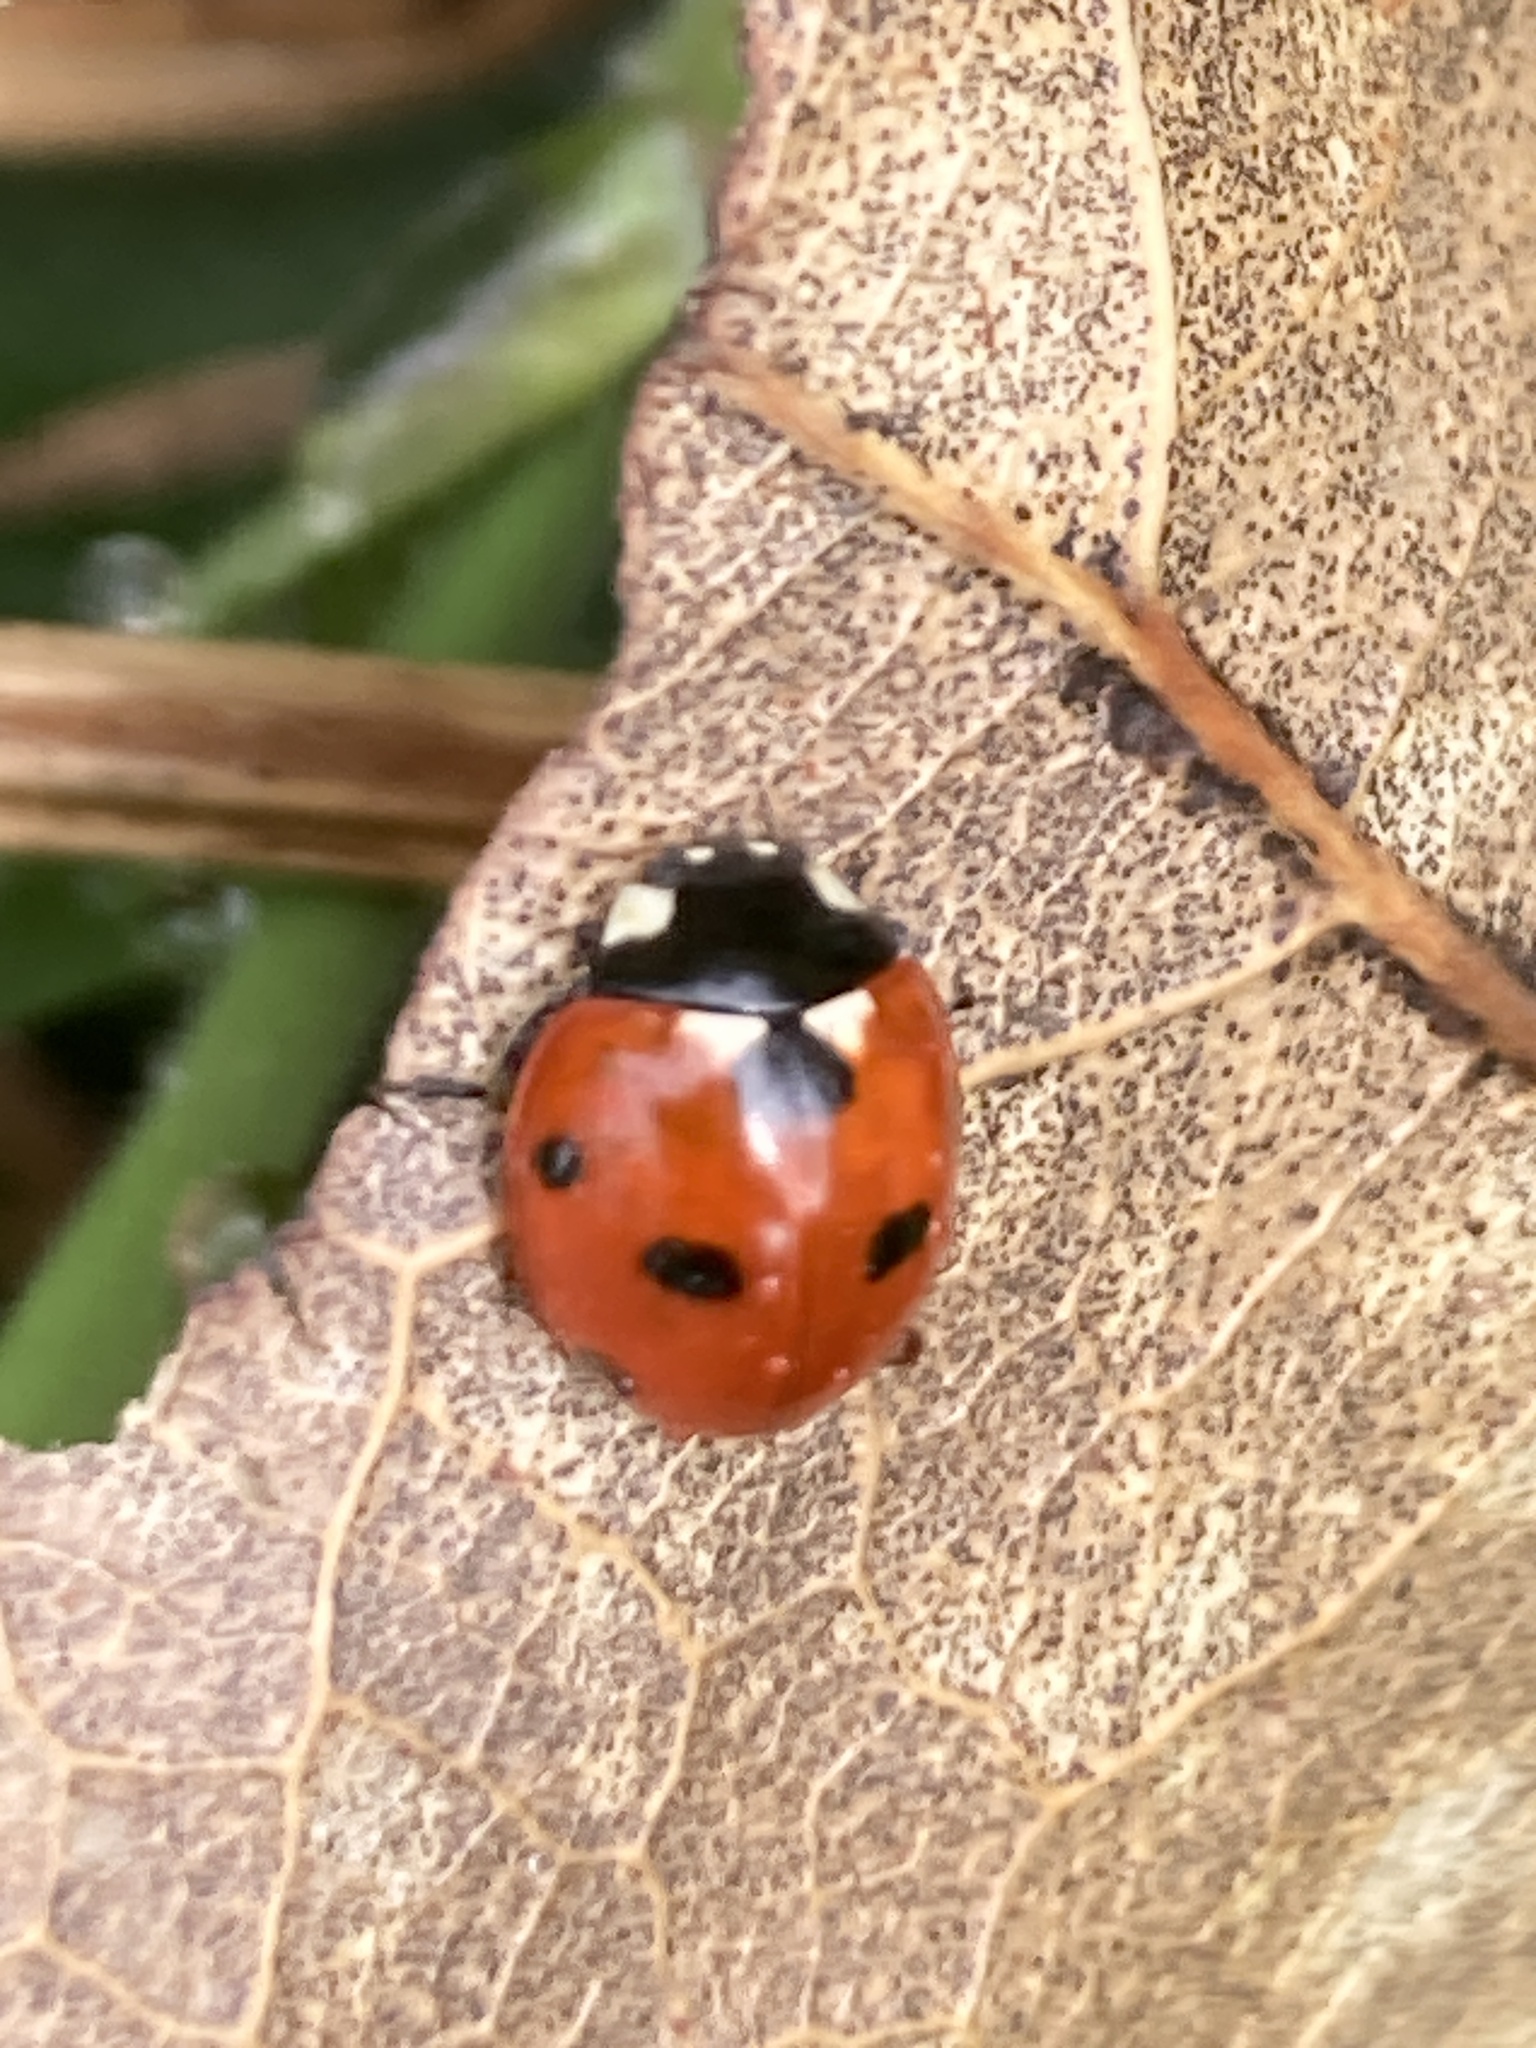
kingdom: Animalia
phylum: Arthropoda
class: Insecta
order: Coleoptera
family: Coccinellidae
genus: Coccinella
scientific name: Coccinella septempunctata
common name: Sevenspotted lady beetle
